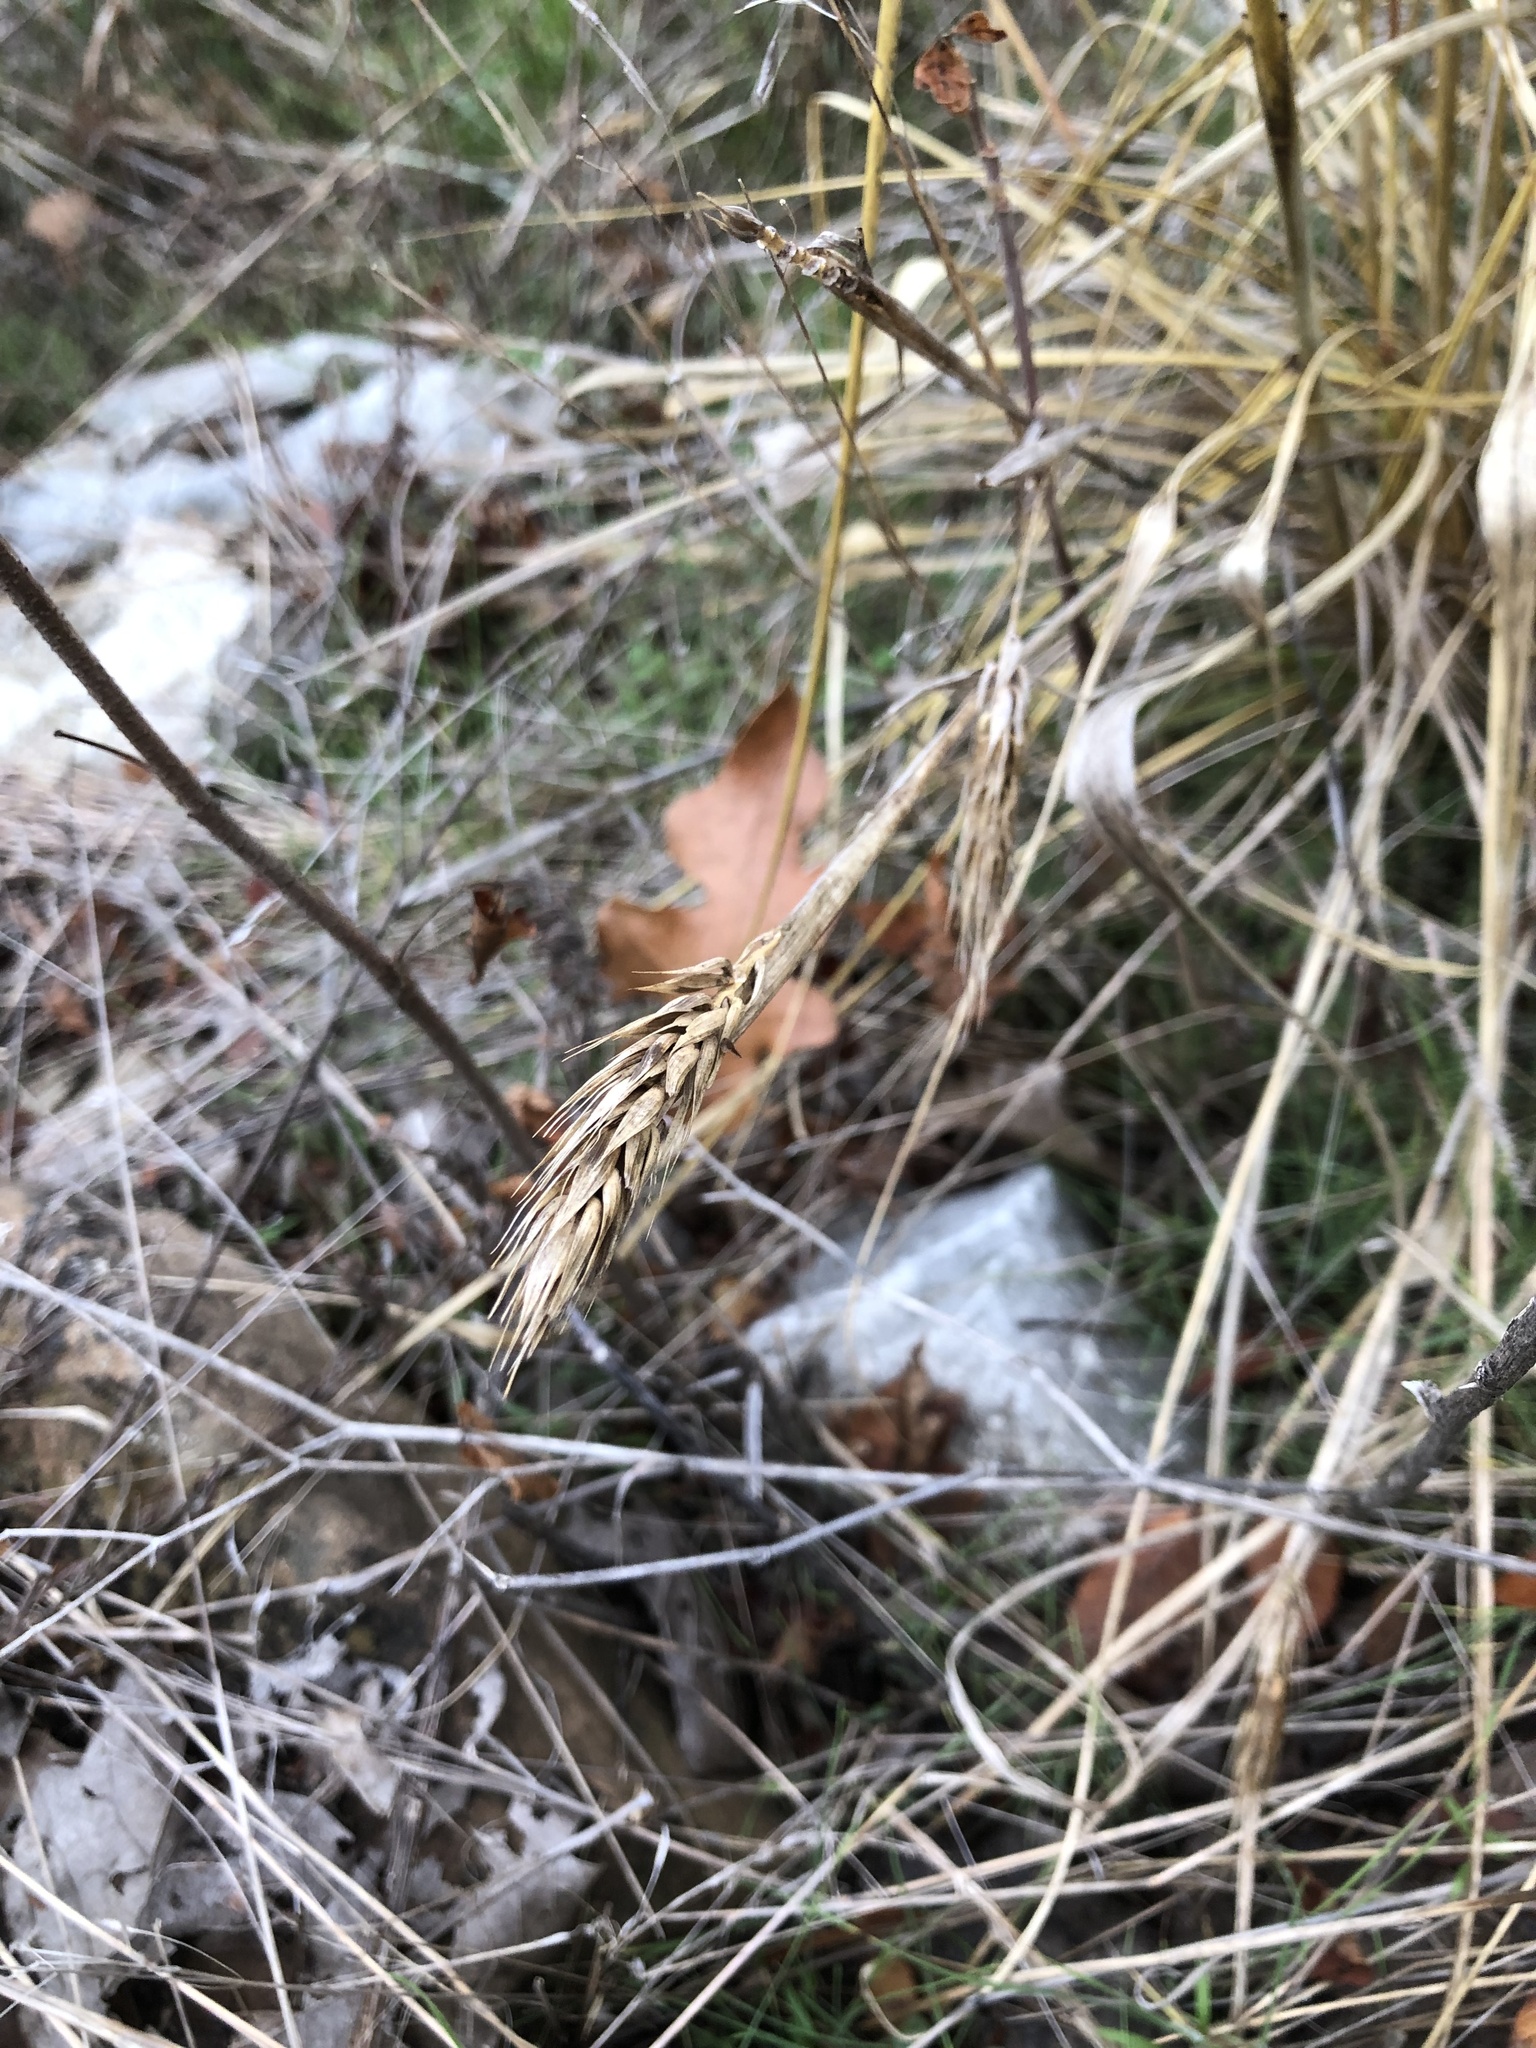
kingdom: Plantae
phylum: Tracheophyta
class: Liliopsida
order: Poales
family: Poaceae
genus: Elymus
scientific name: Elymus virginicus
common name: Common eastern wildrye
